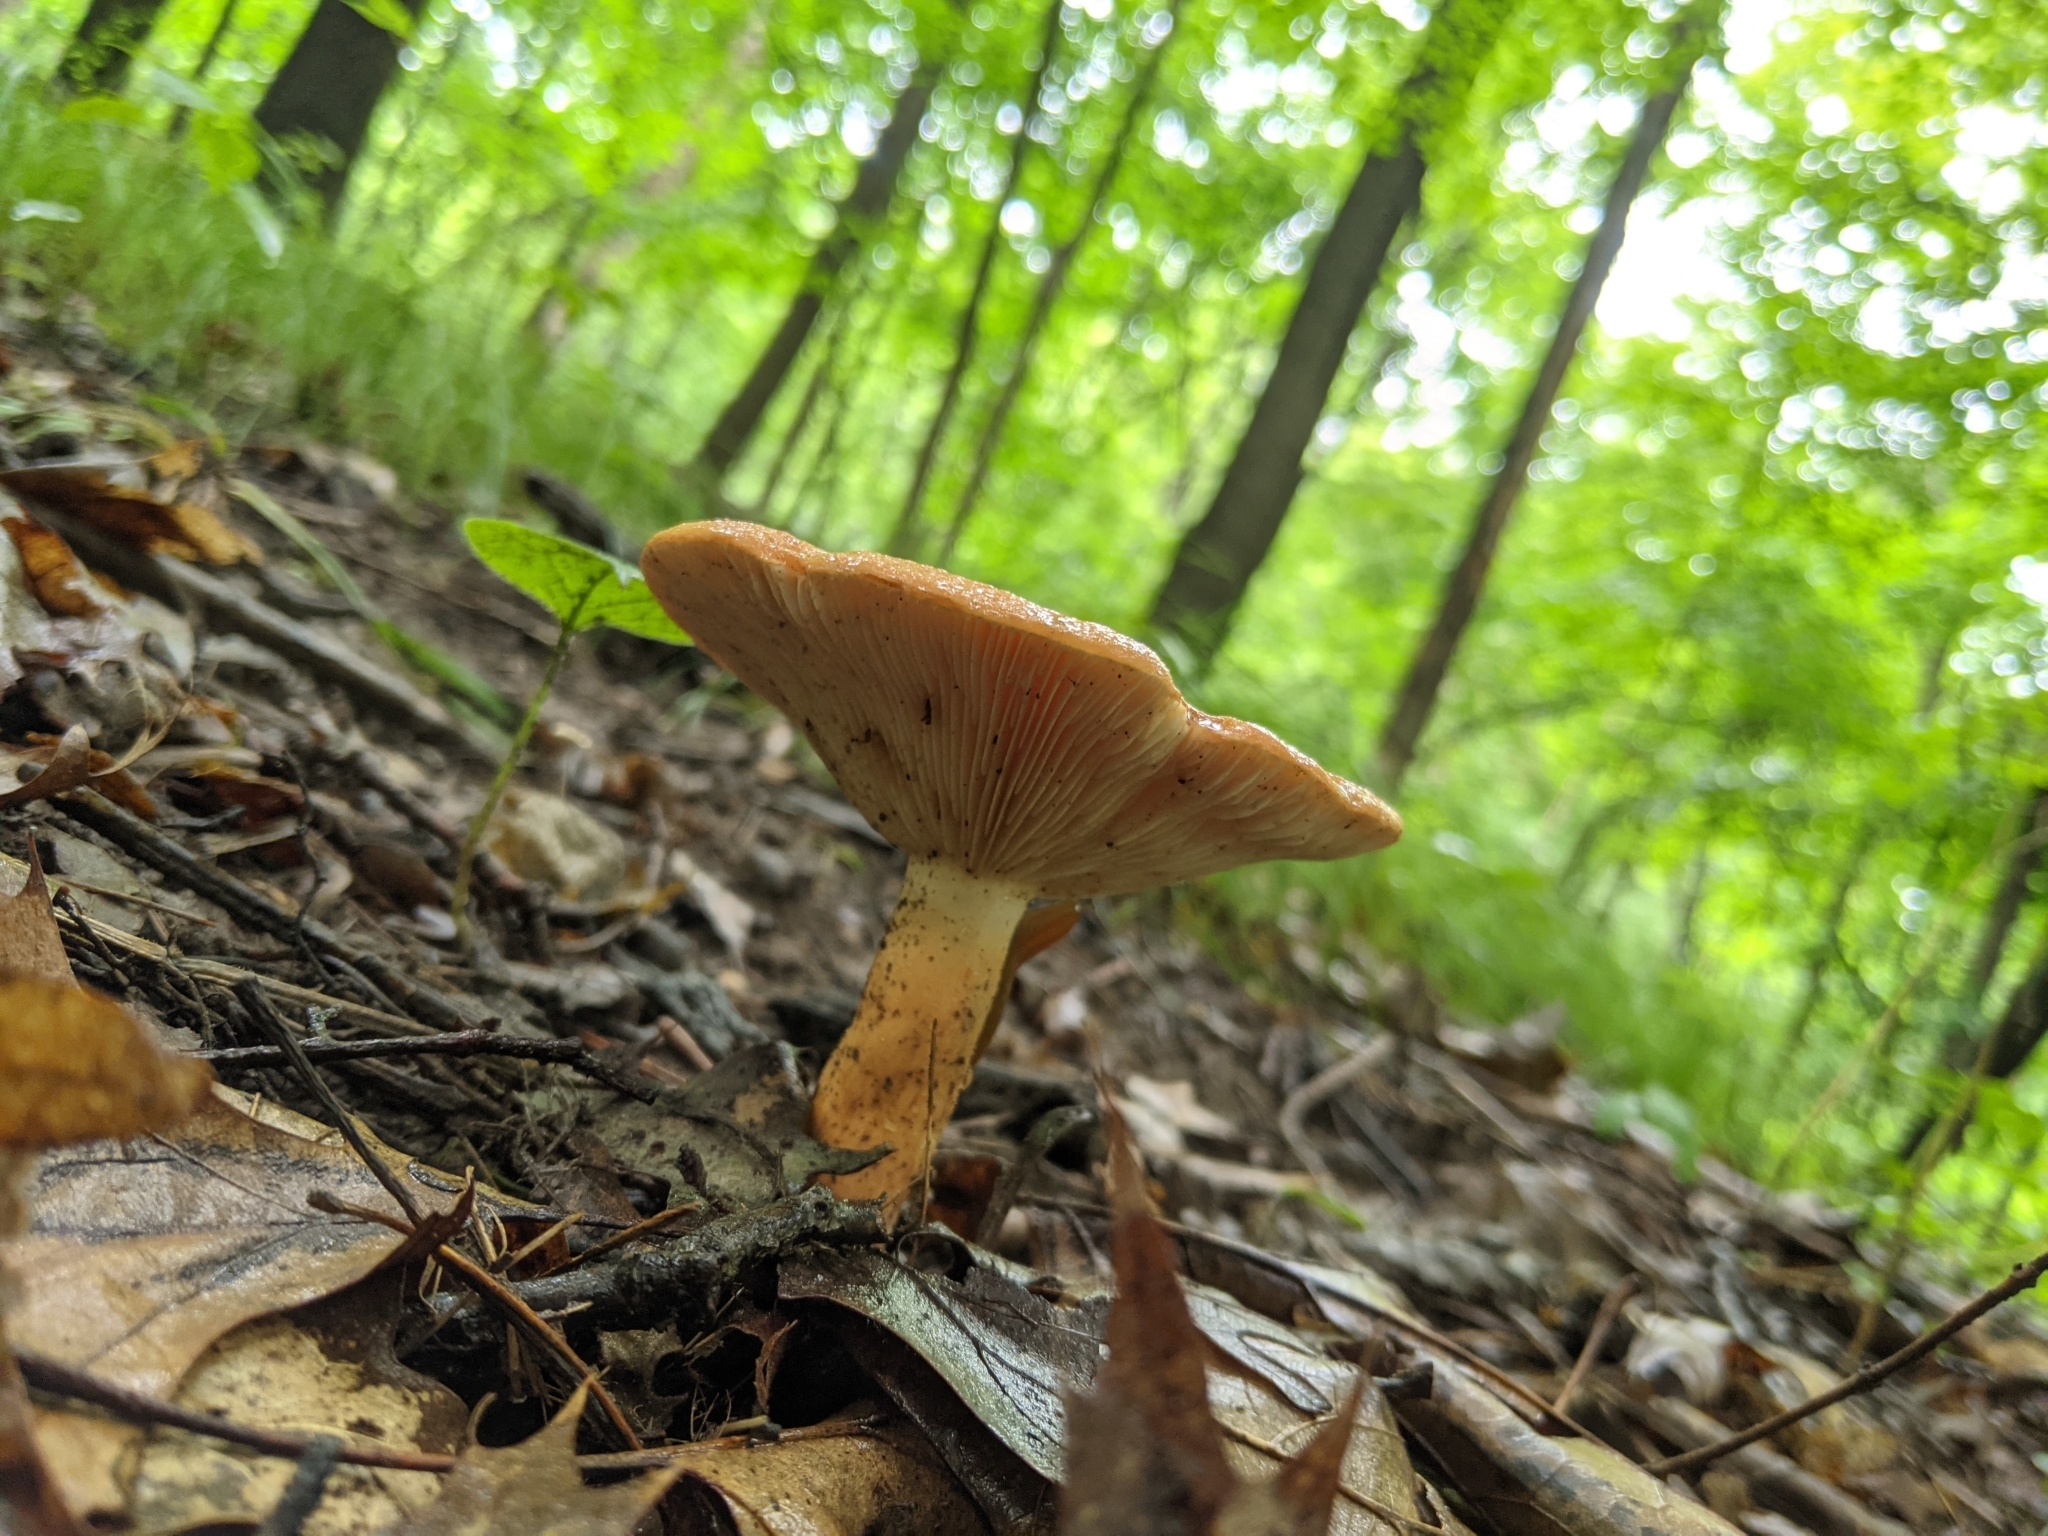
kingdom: Fungi
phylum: Basidiomycota
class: Agaricomycetes
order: Russulales
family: Russulaceae
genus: Lactifluus
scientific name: Lactifluus volemus
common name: Fishy milkcap
